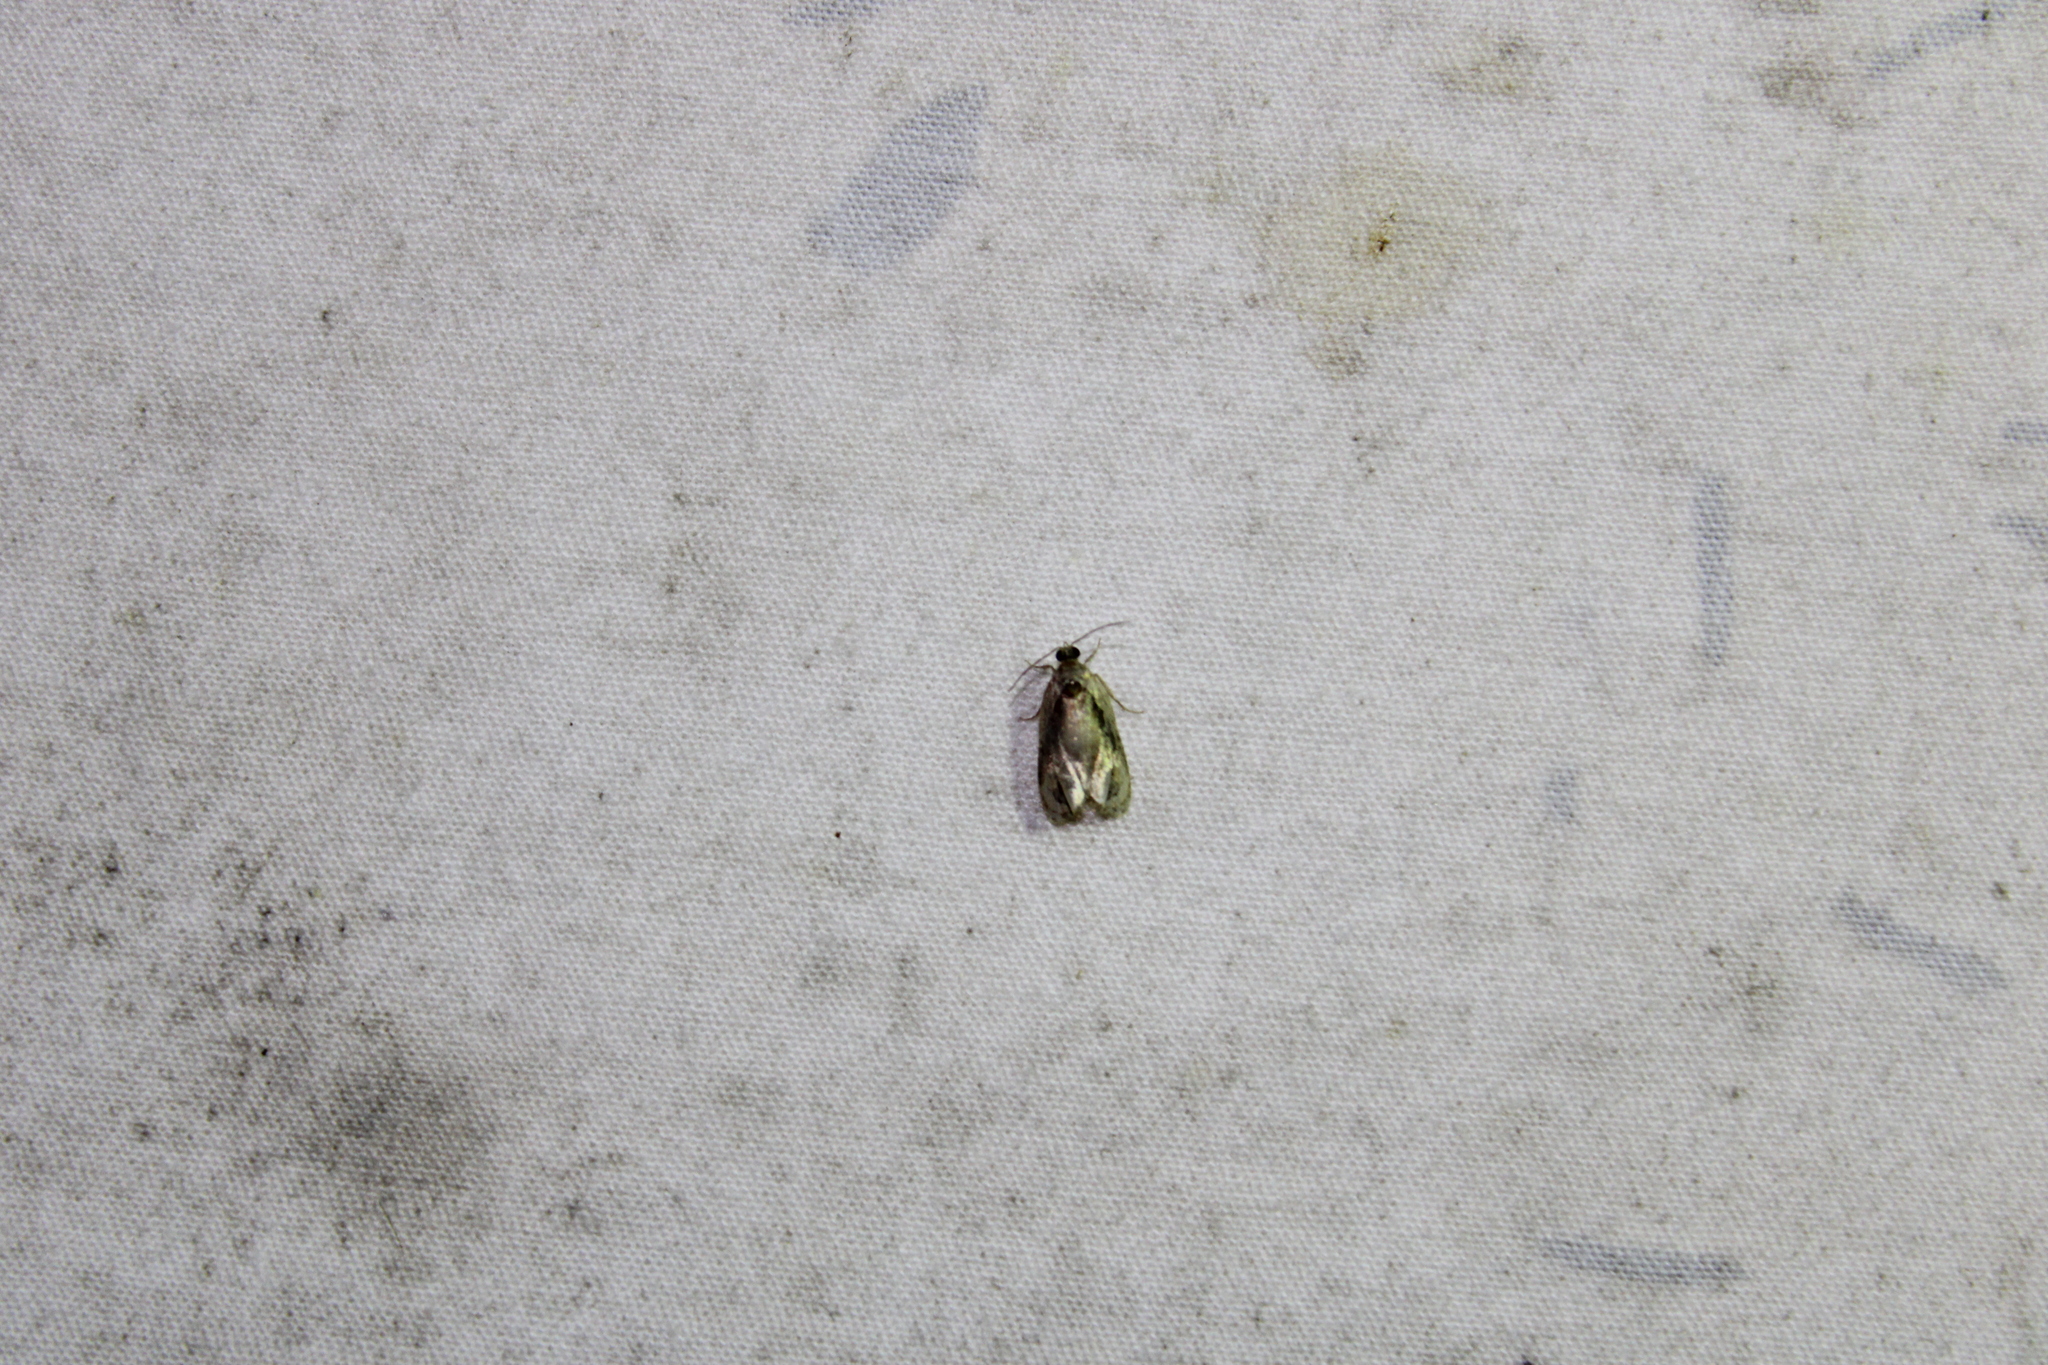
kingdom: Animalia
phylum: Arthropoda
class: Insecta
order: Lepidoptera
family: Tortricidae
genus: Zomaria
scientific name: Zomaria interruptolineana
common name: Broken-lined zomaria moth
